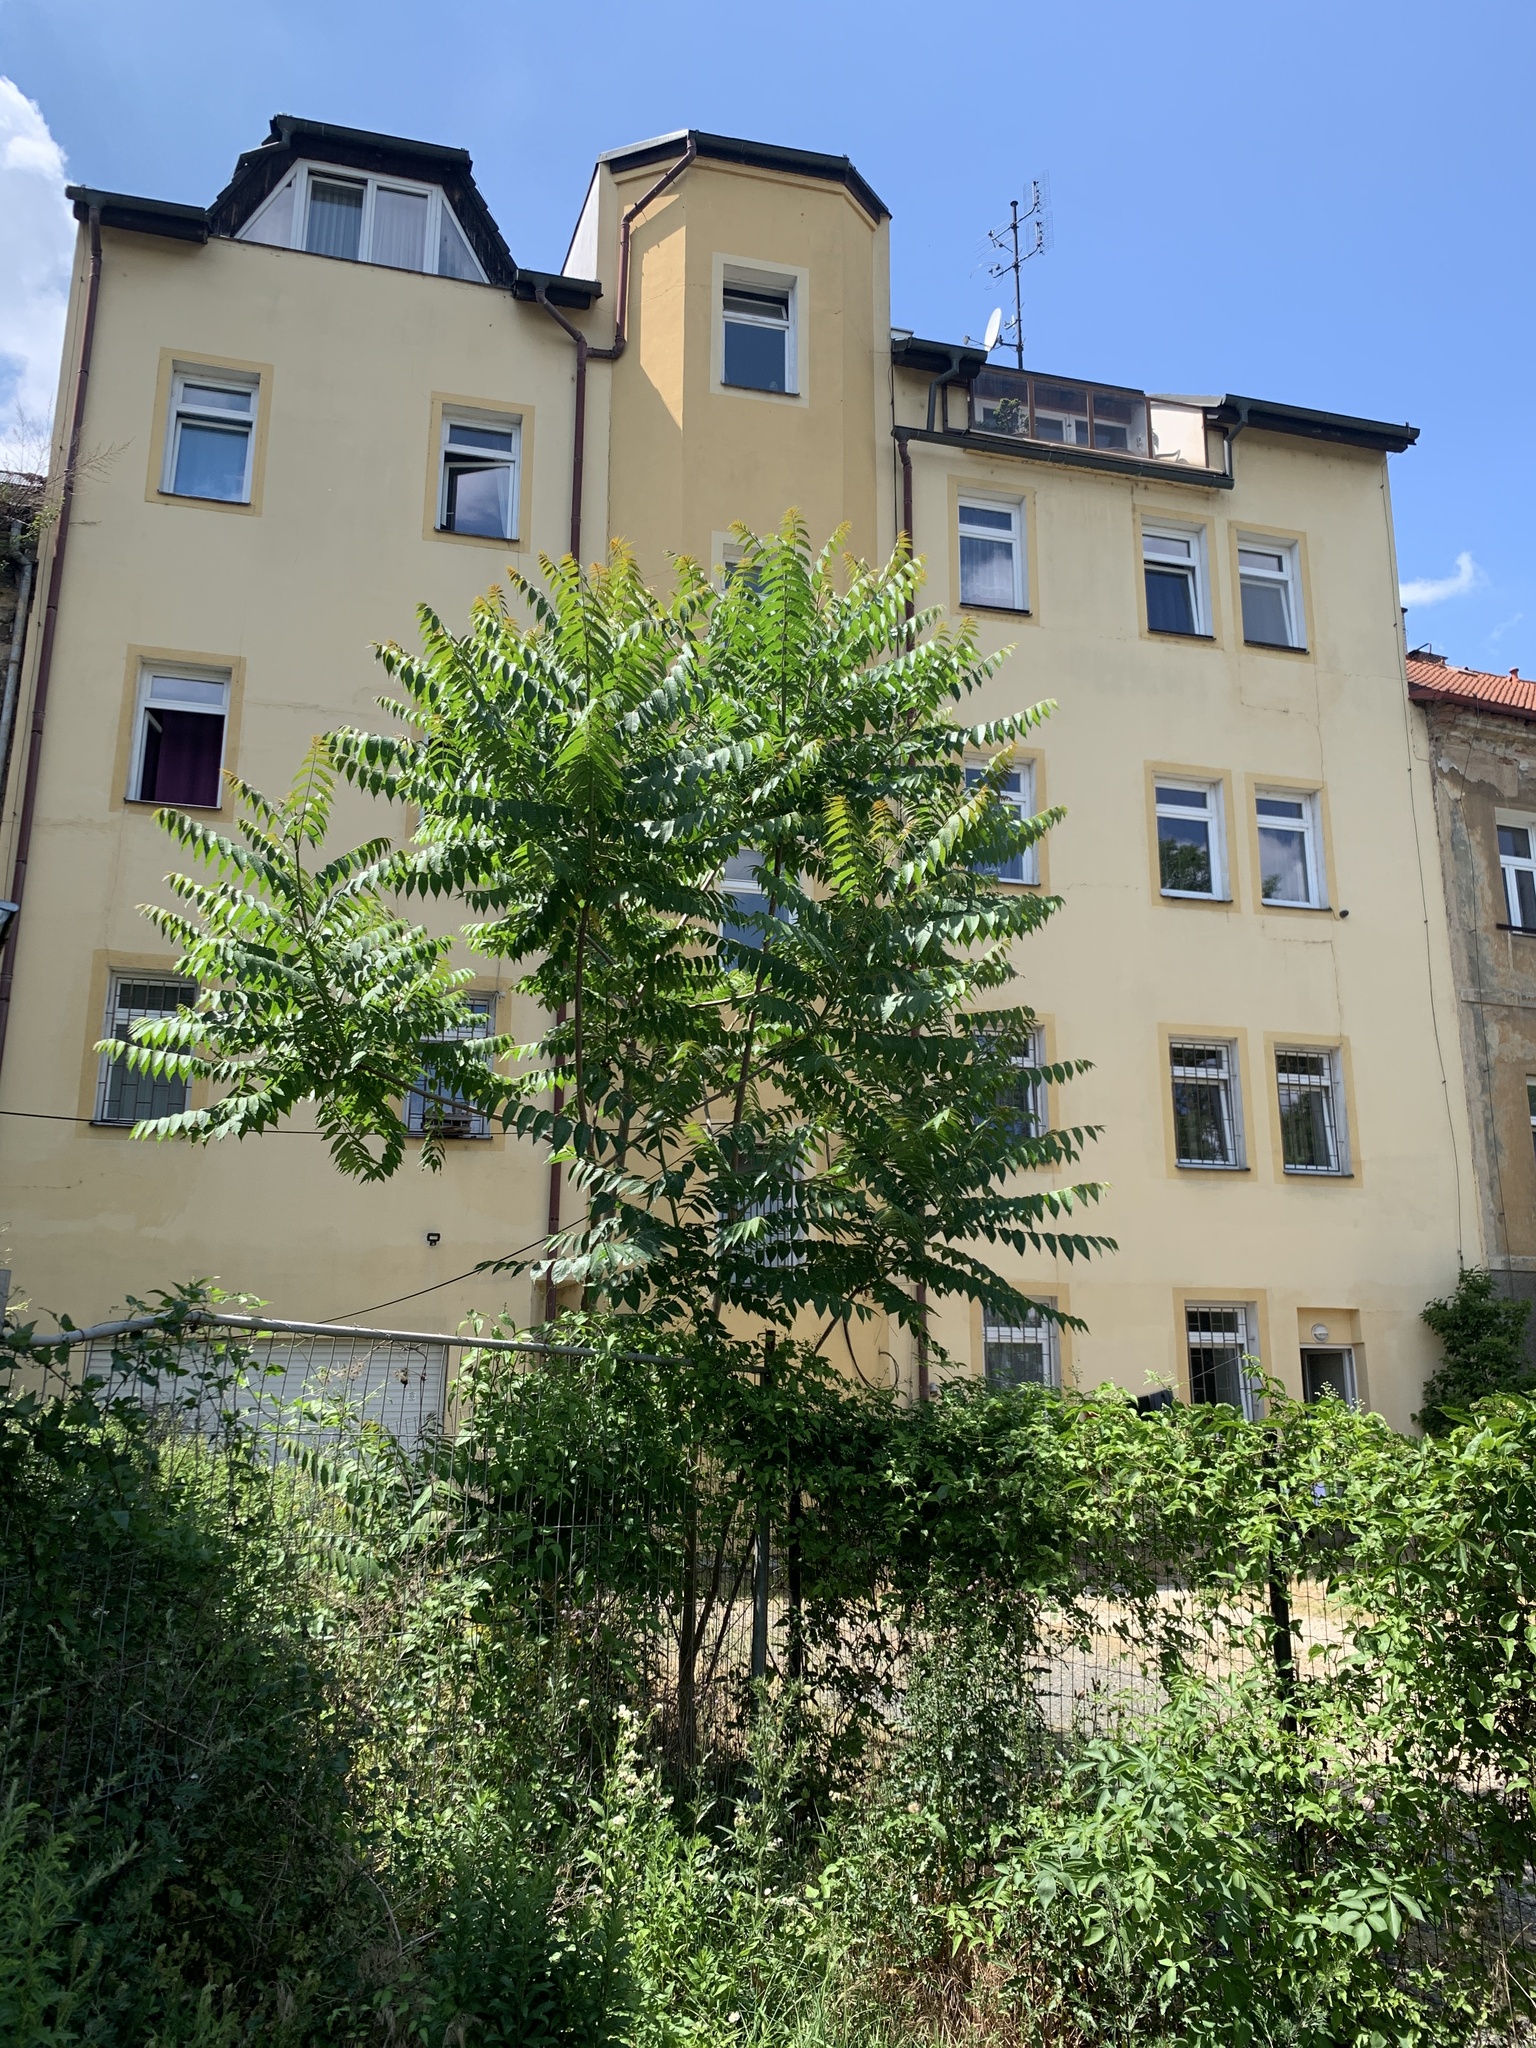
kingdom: Plantae
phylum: Tracheophyta
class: Magnoliopsida
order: Sapindales
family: Simaroubaceae
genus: Ailanthus
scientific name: Ailanthus altissima
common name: Tree-of-heaven
